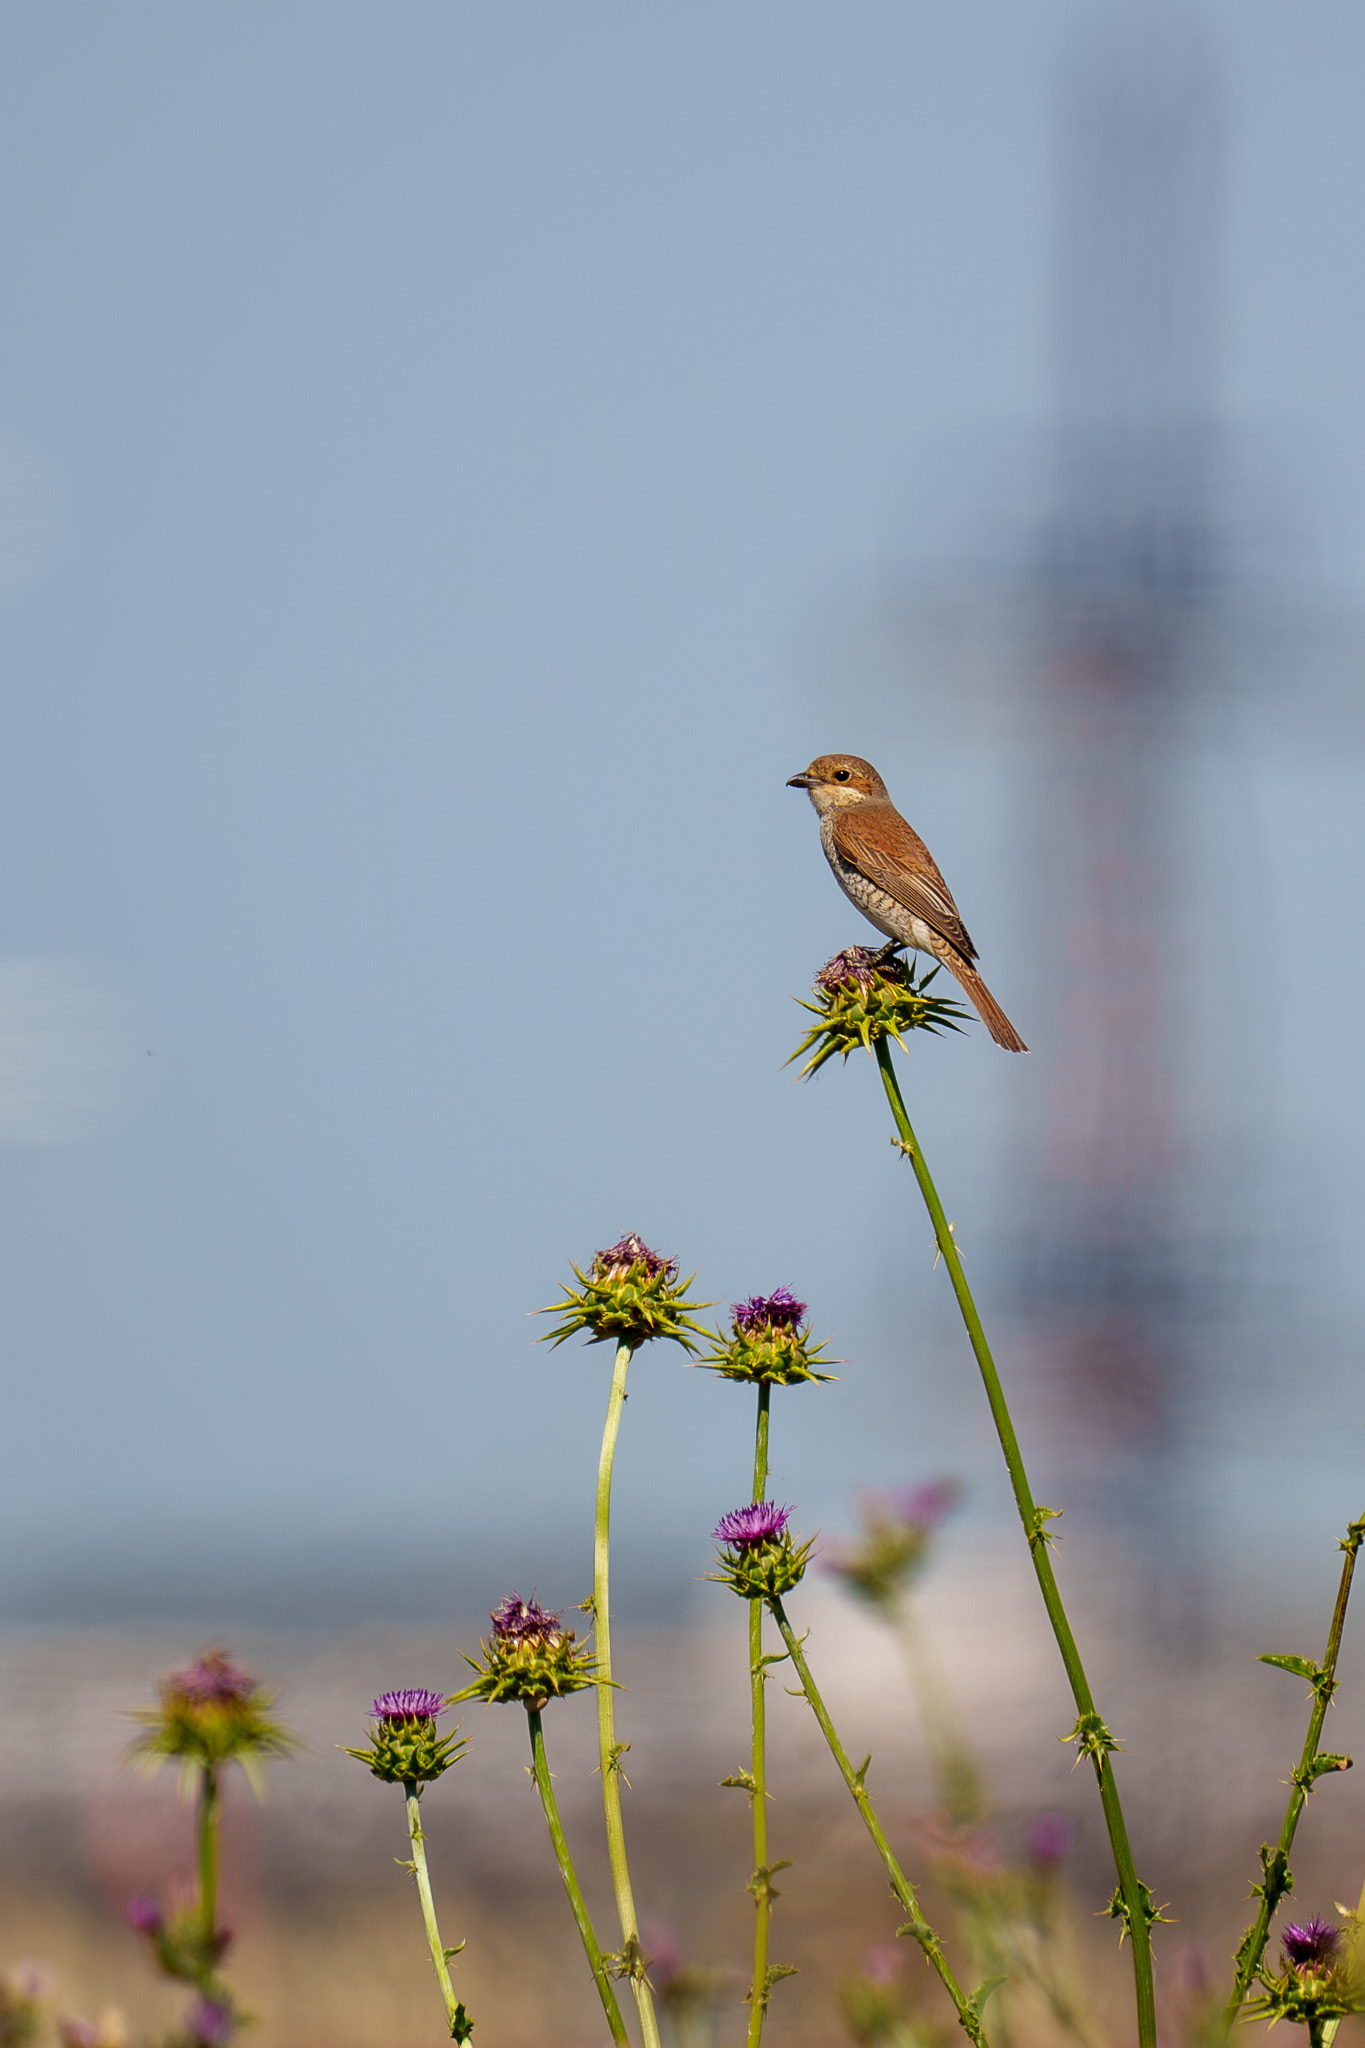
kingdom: Animalia
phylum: Chordata
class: Aves
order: Passeriformes
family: Laniidae
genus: Lanius
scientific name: Lanius collurio
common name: Red-backed shrike
